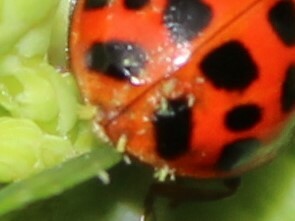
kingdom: Fungi
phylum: Ascomycota
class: Laboulbeniomycetes
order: Laboulbeniales
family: Laboulbeniaceae
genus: Hesperomyces
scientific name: Hesperomyces harmoniae
